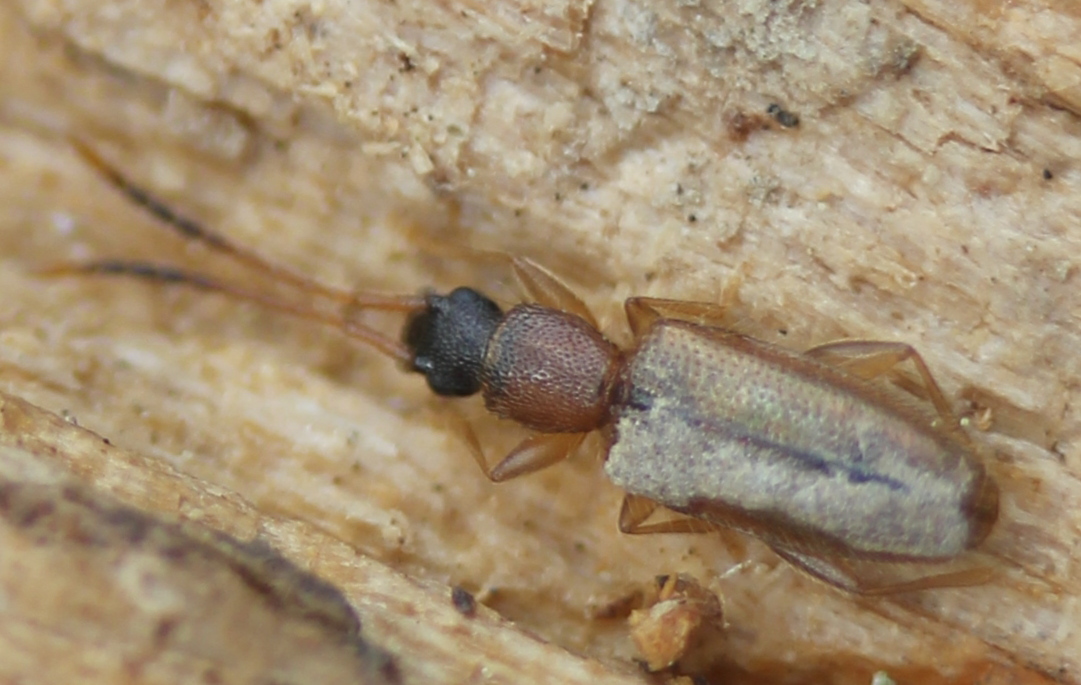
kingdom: Animalia
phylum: Arthropoda
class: Insecta
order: Coleoptera
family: Silvanidae
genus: Telephanus
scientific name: Telephanus velox
